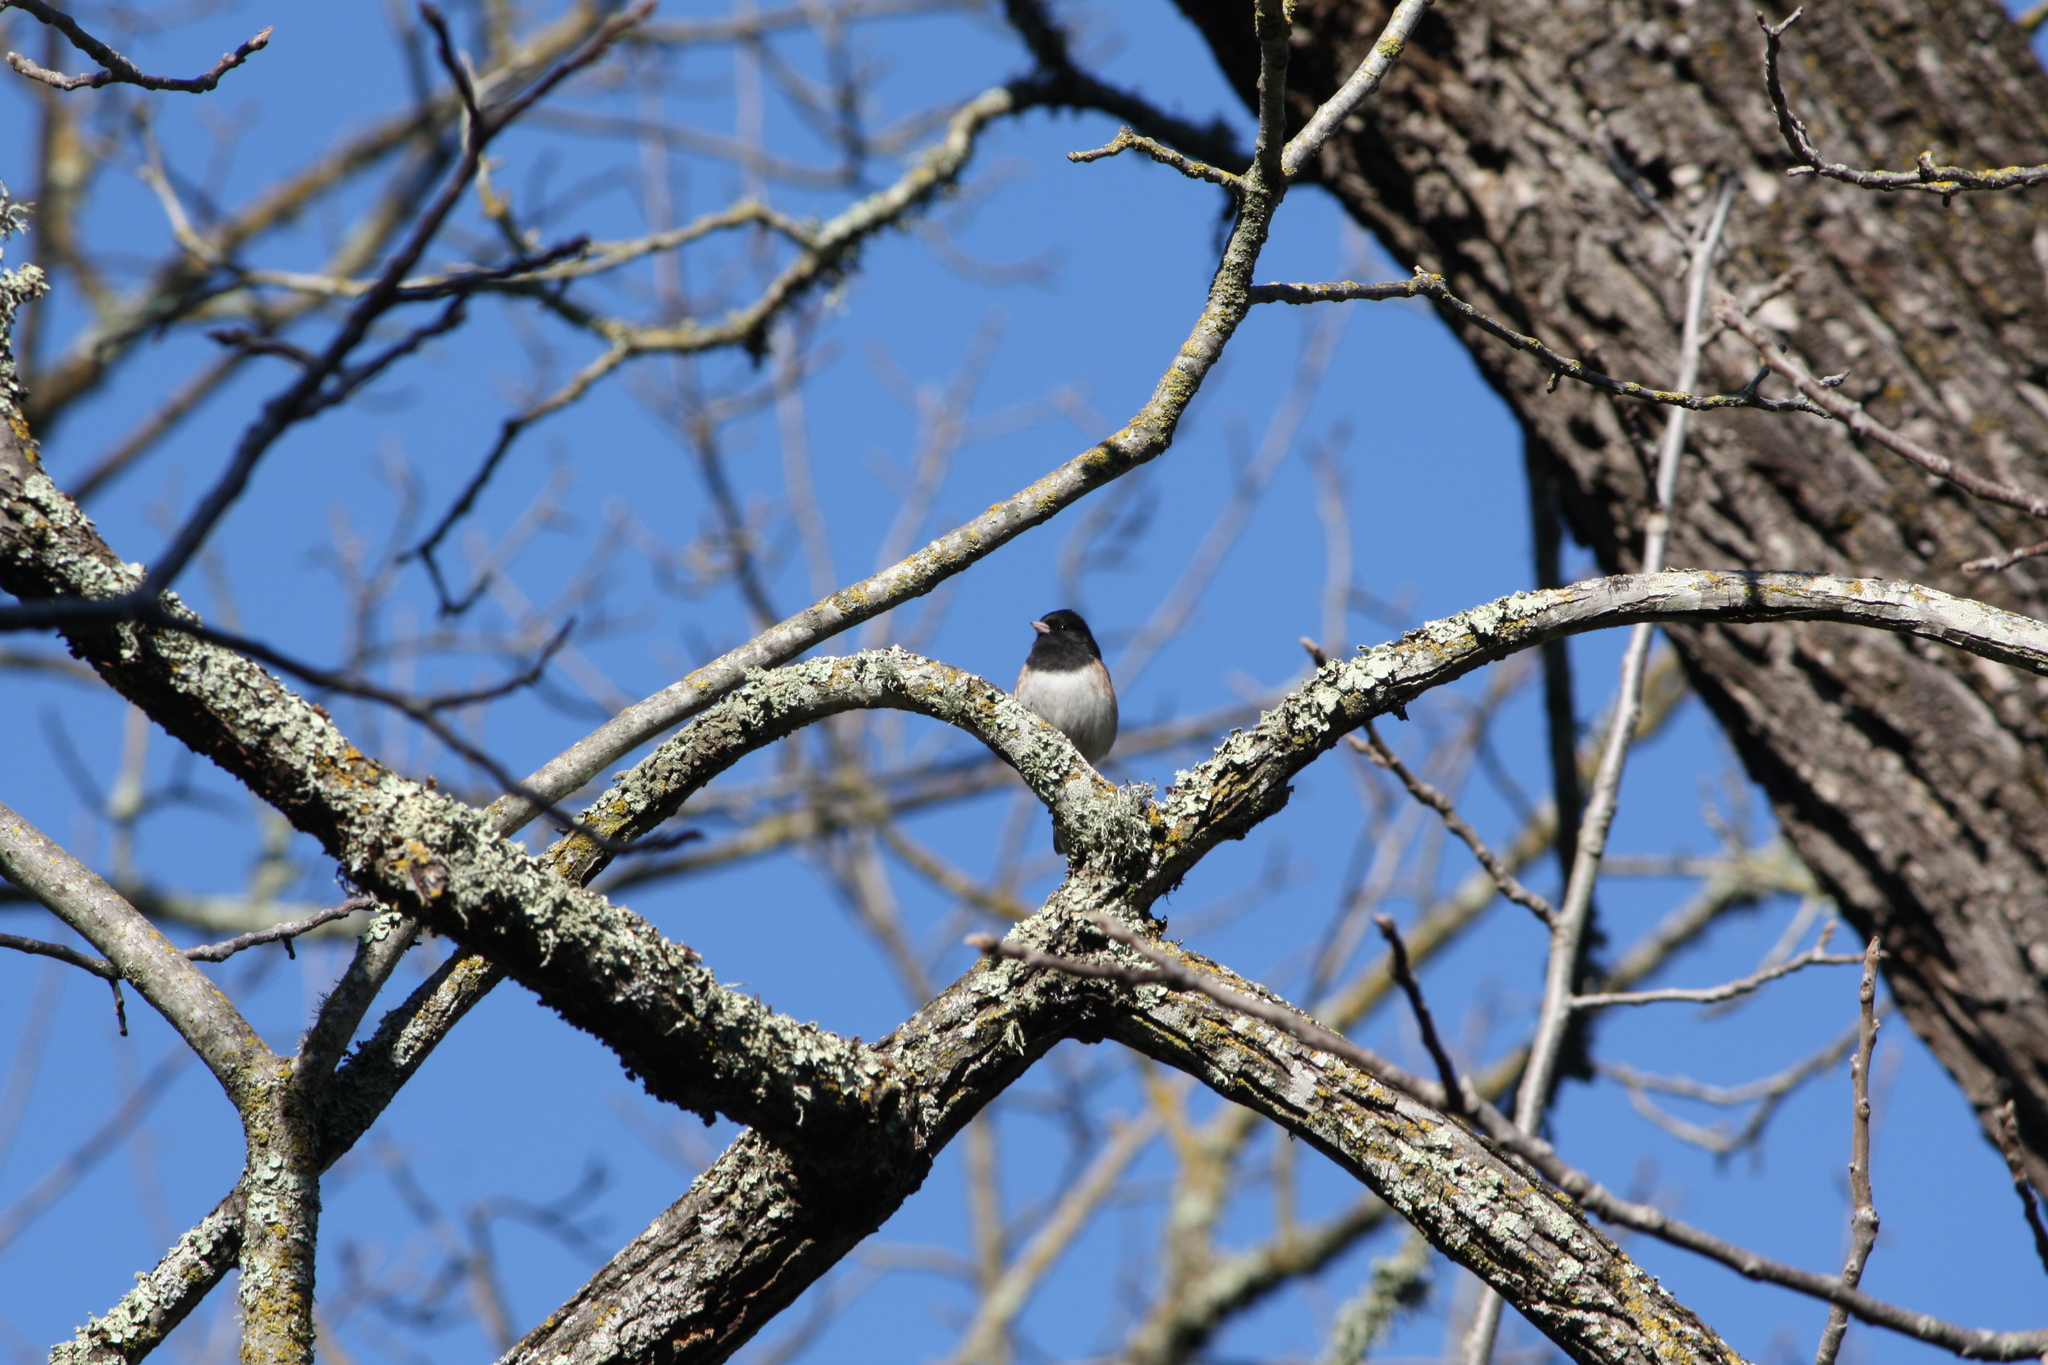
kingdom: Animalia
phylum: Chordata
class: Aves
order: Passeriformes
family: Passerellidae
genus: Junco
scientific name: Junco hyemalis
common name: Dark-eyed junco
